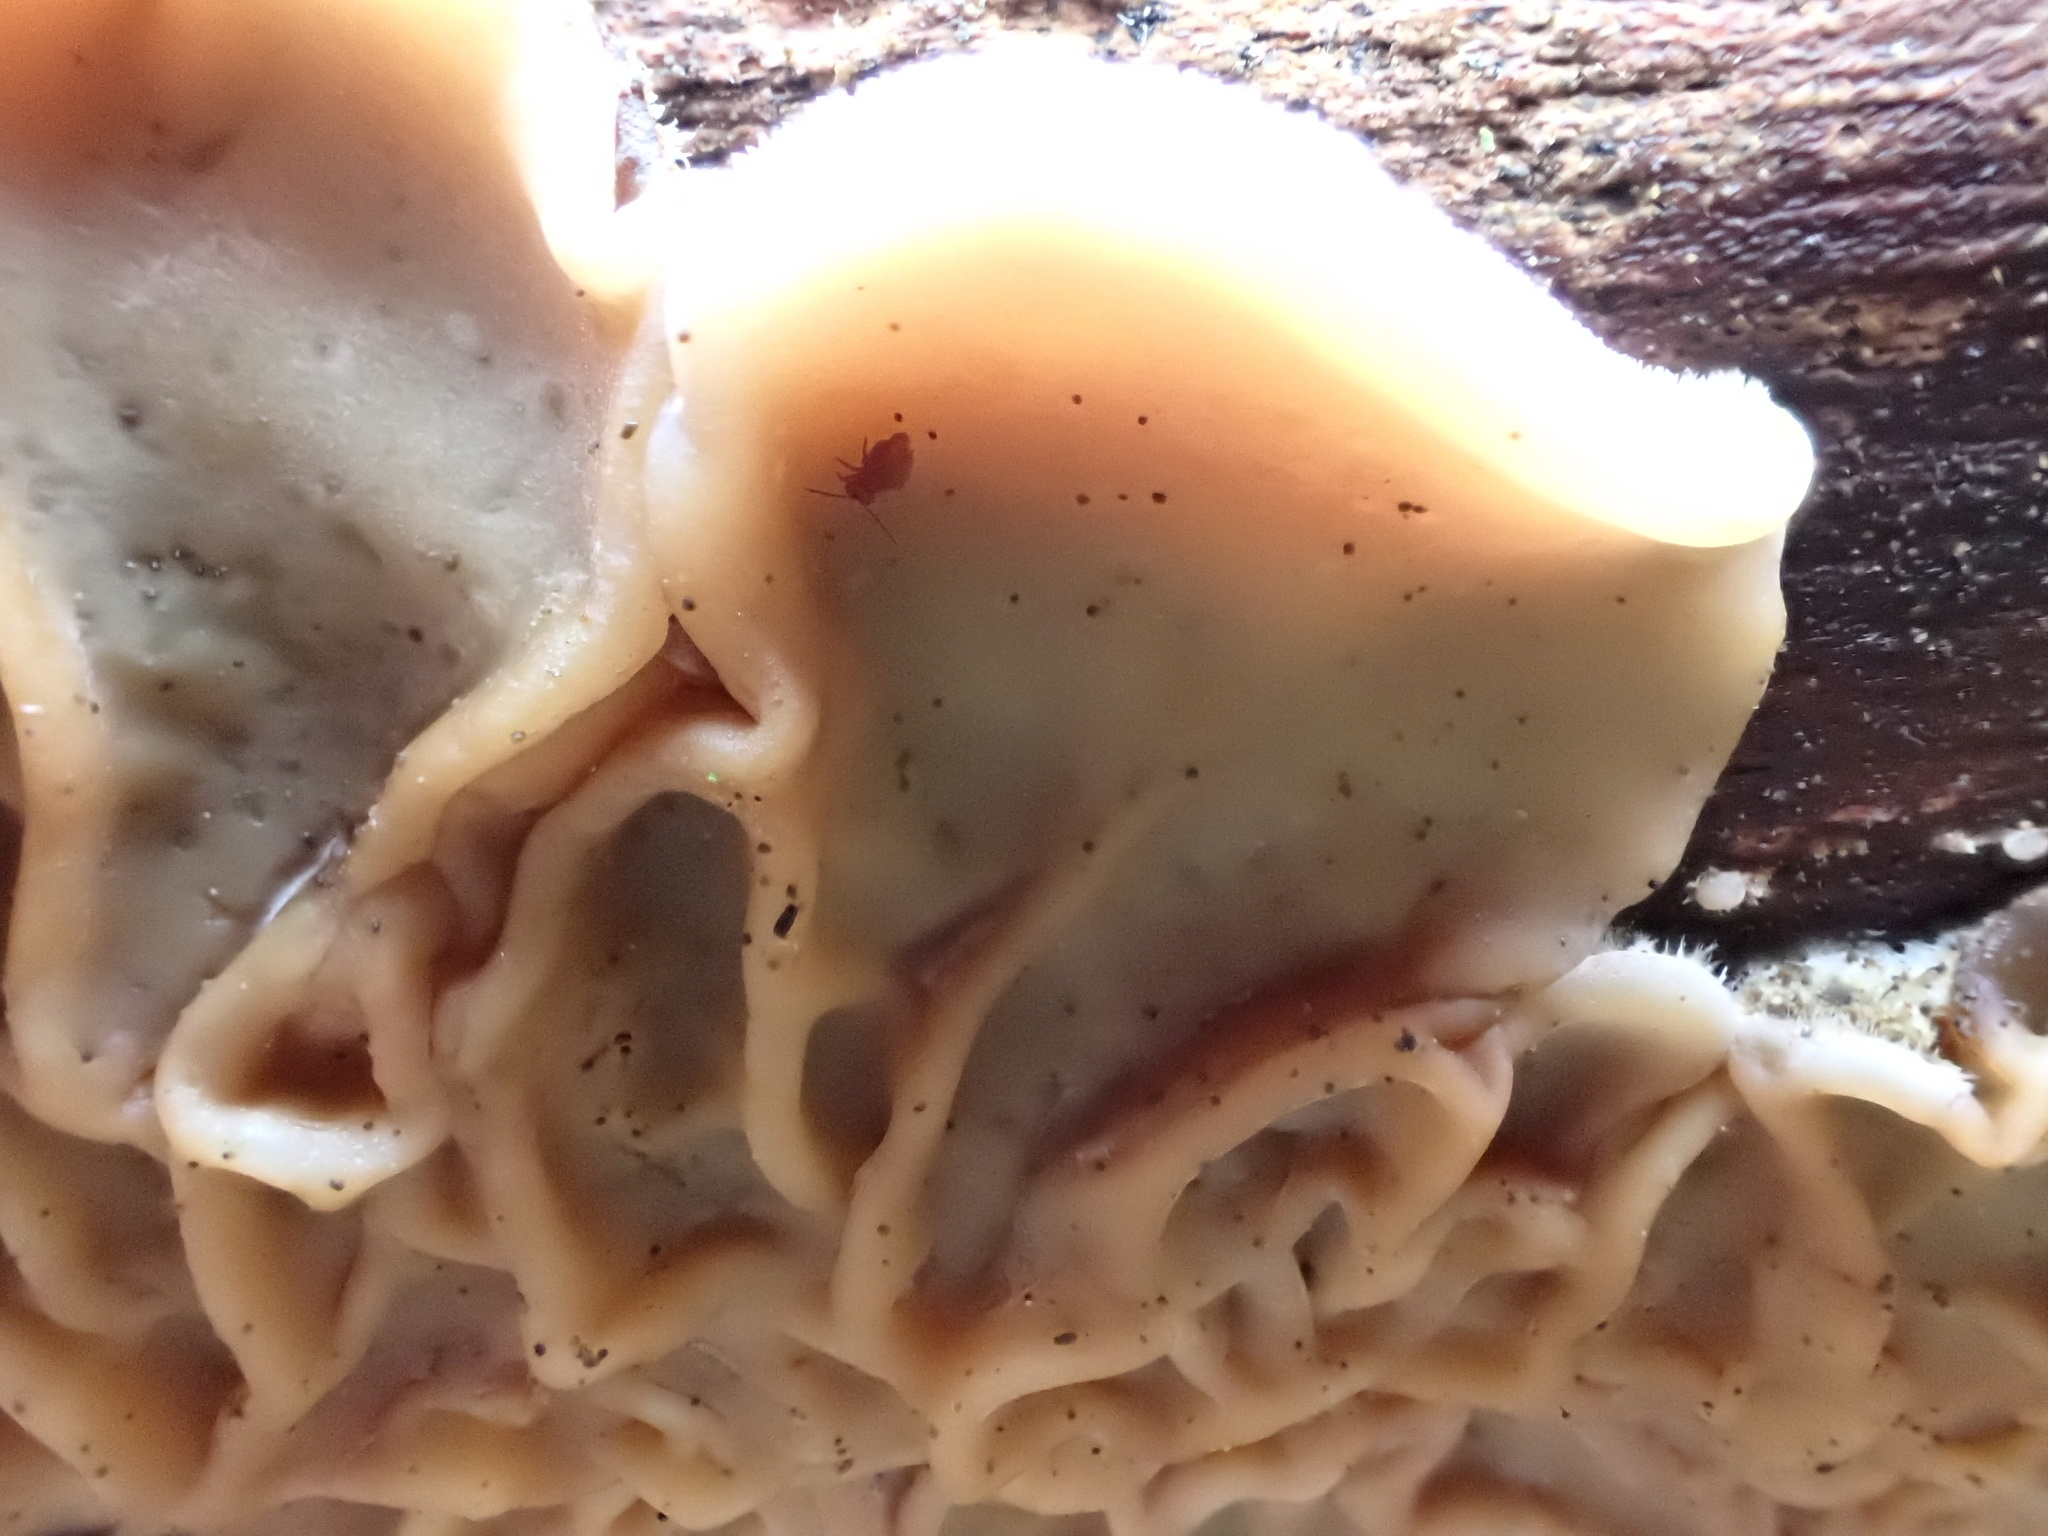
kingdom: Fungi
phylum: Basidiomycota
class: Agaricomycetes
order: Auriculariales
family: Auriculariaceae
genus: Auricularia
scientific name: Auricularia mesenterica
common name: Tripe fungus
